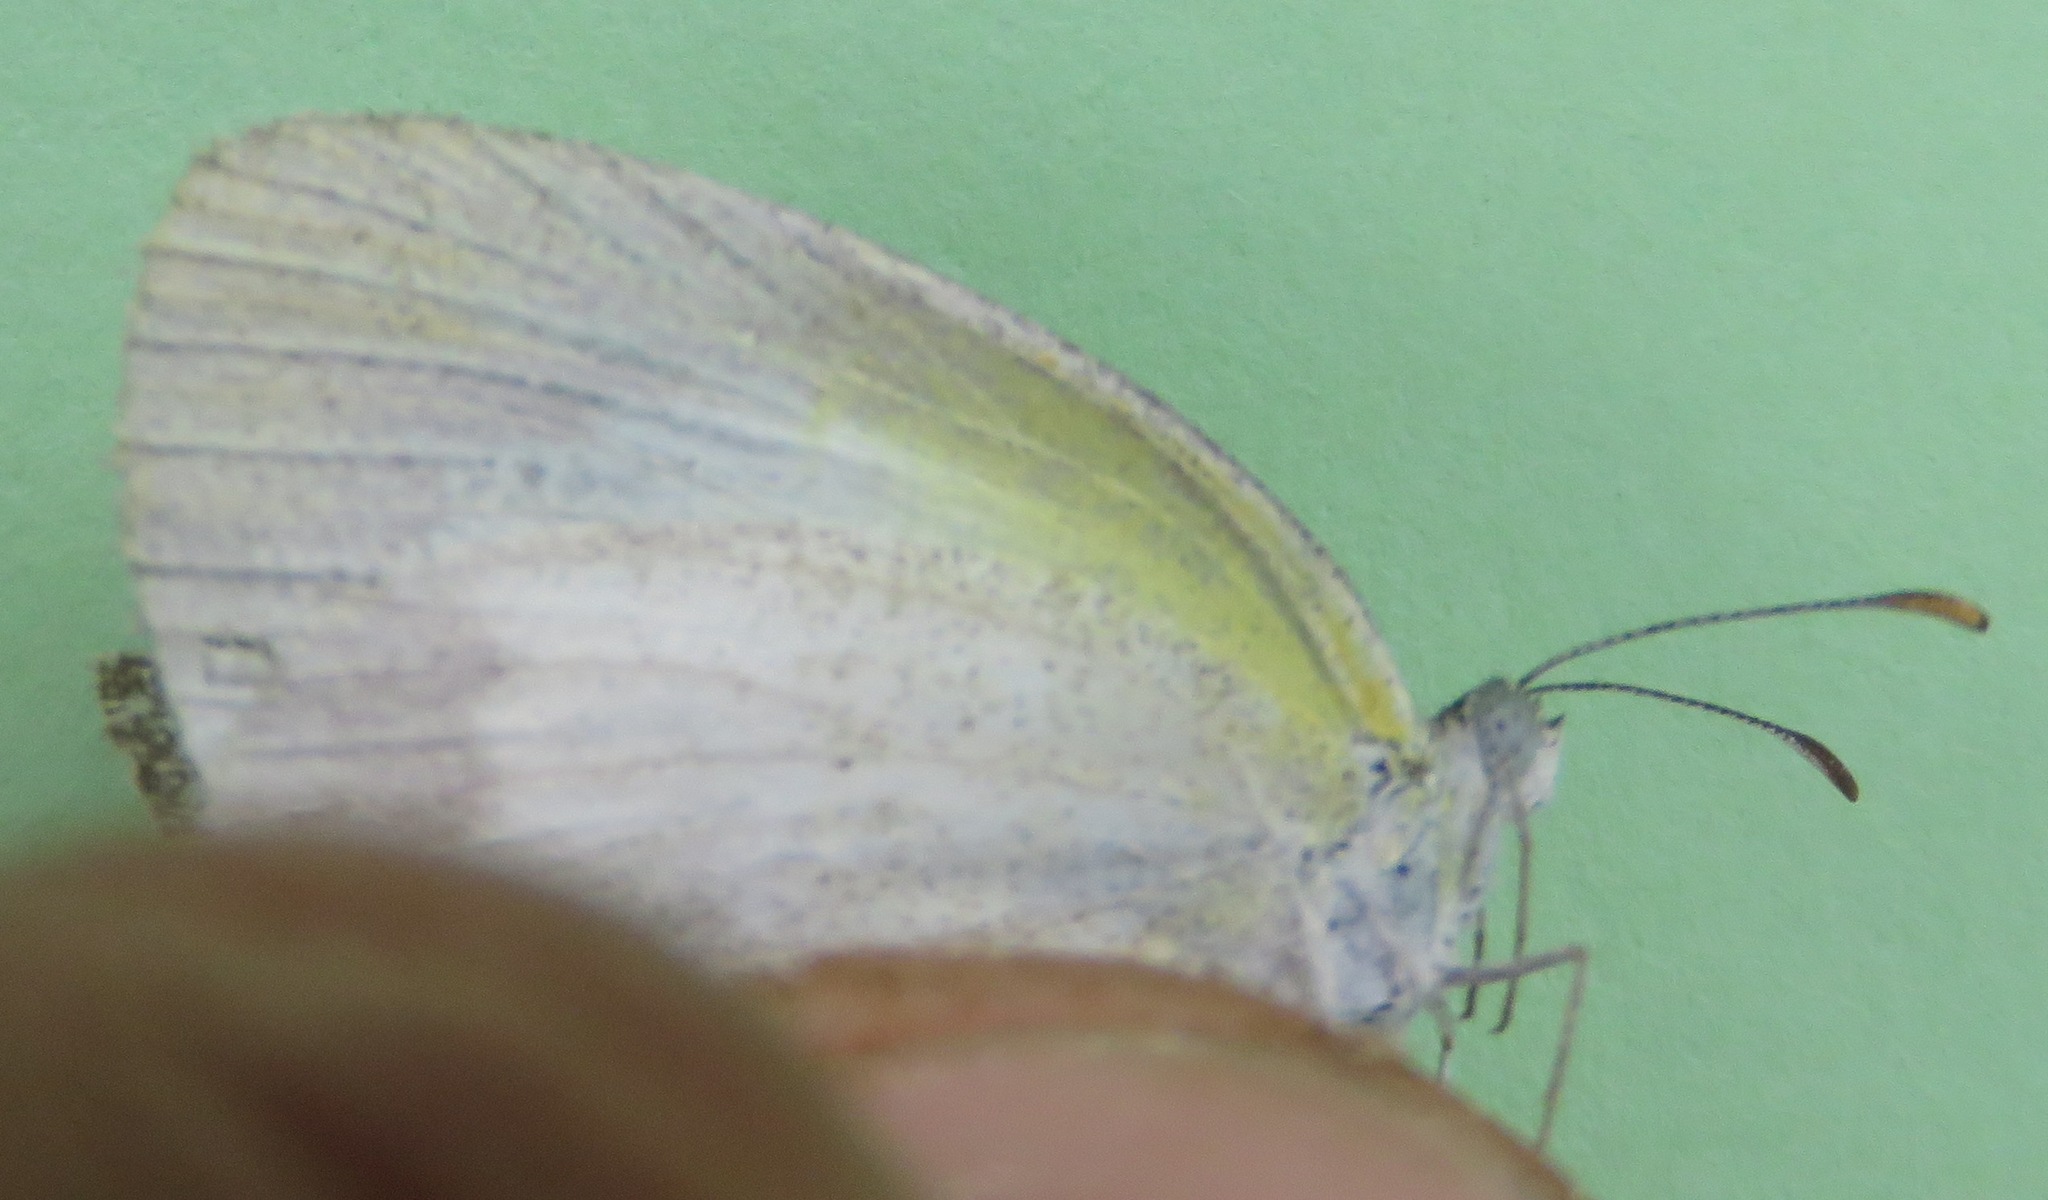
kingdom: Animalia
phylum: Arthropoda
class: Insecta
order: Lepidoptera
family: Pieridae
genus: Eurema
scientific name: Eurema daira
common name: Barred sulphur
